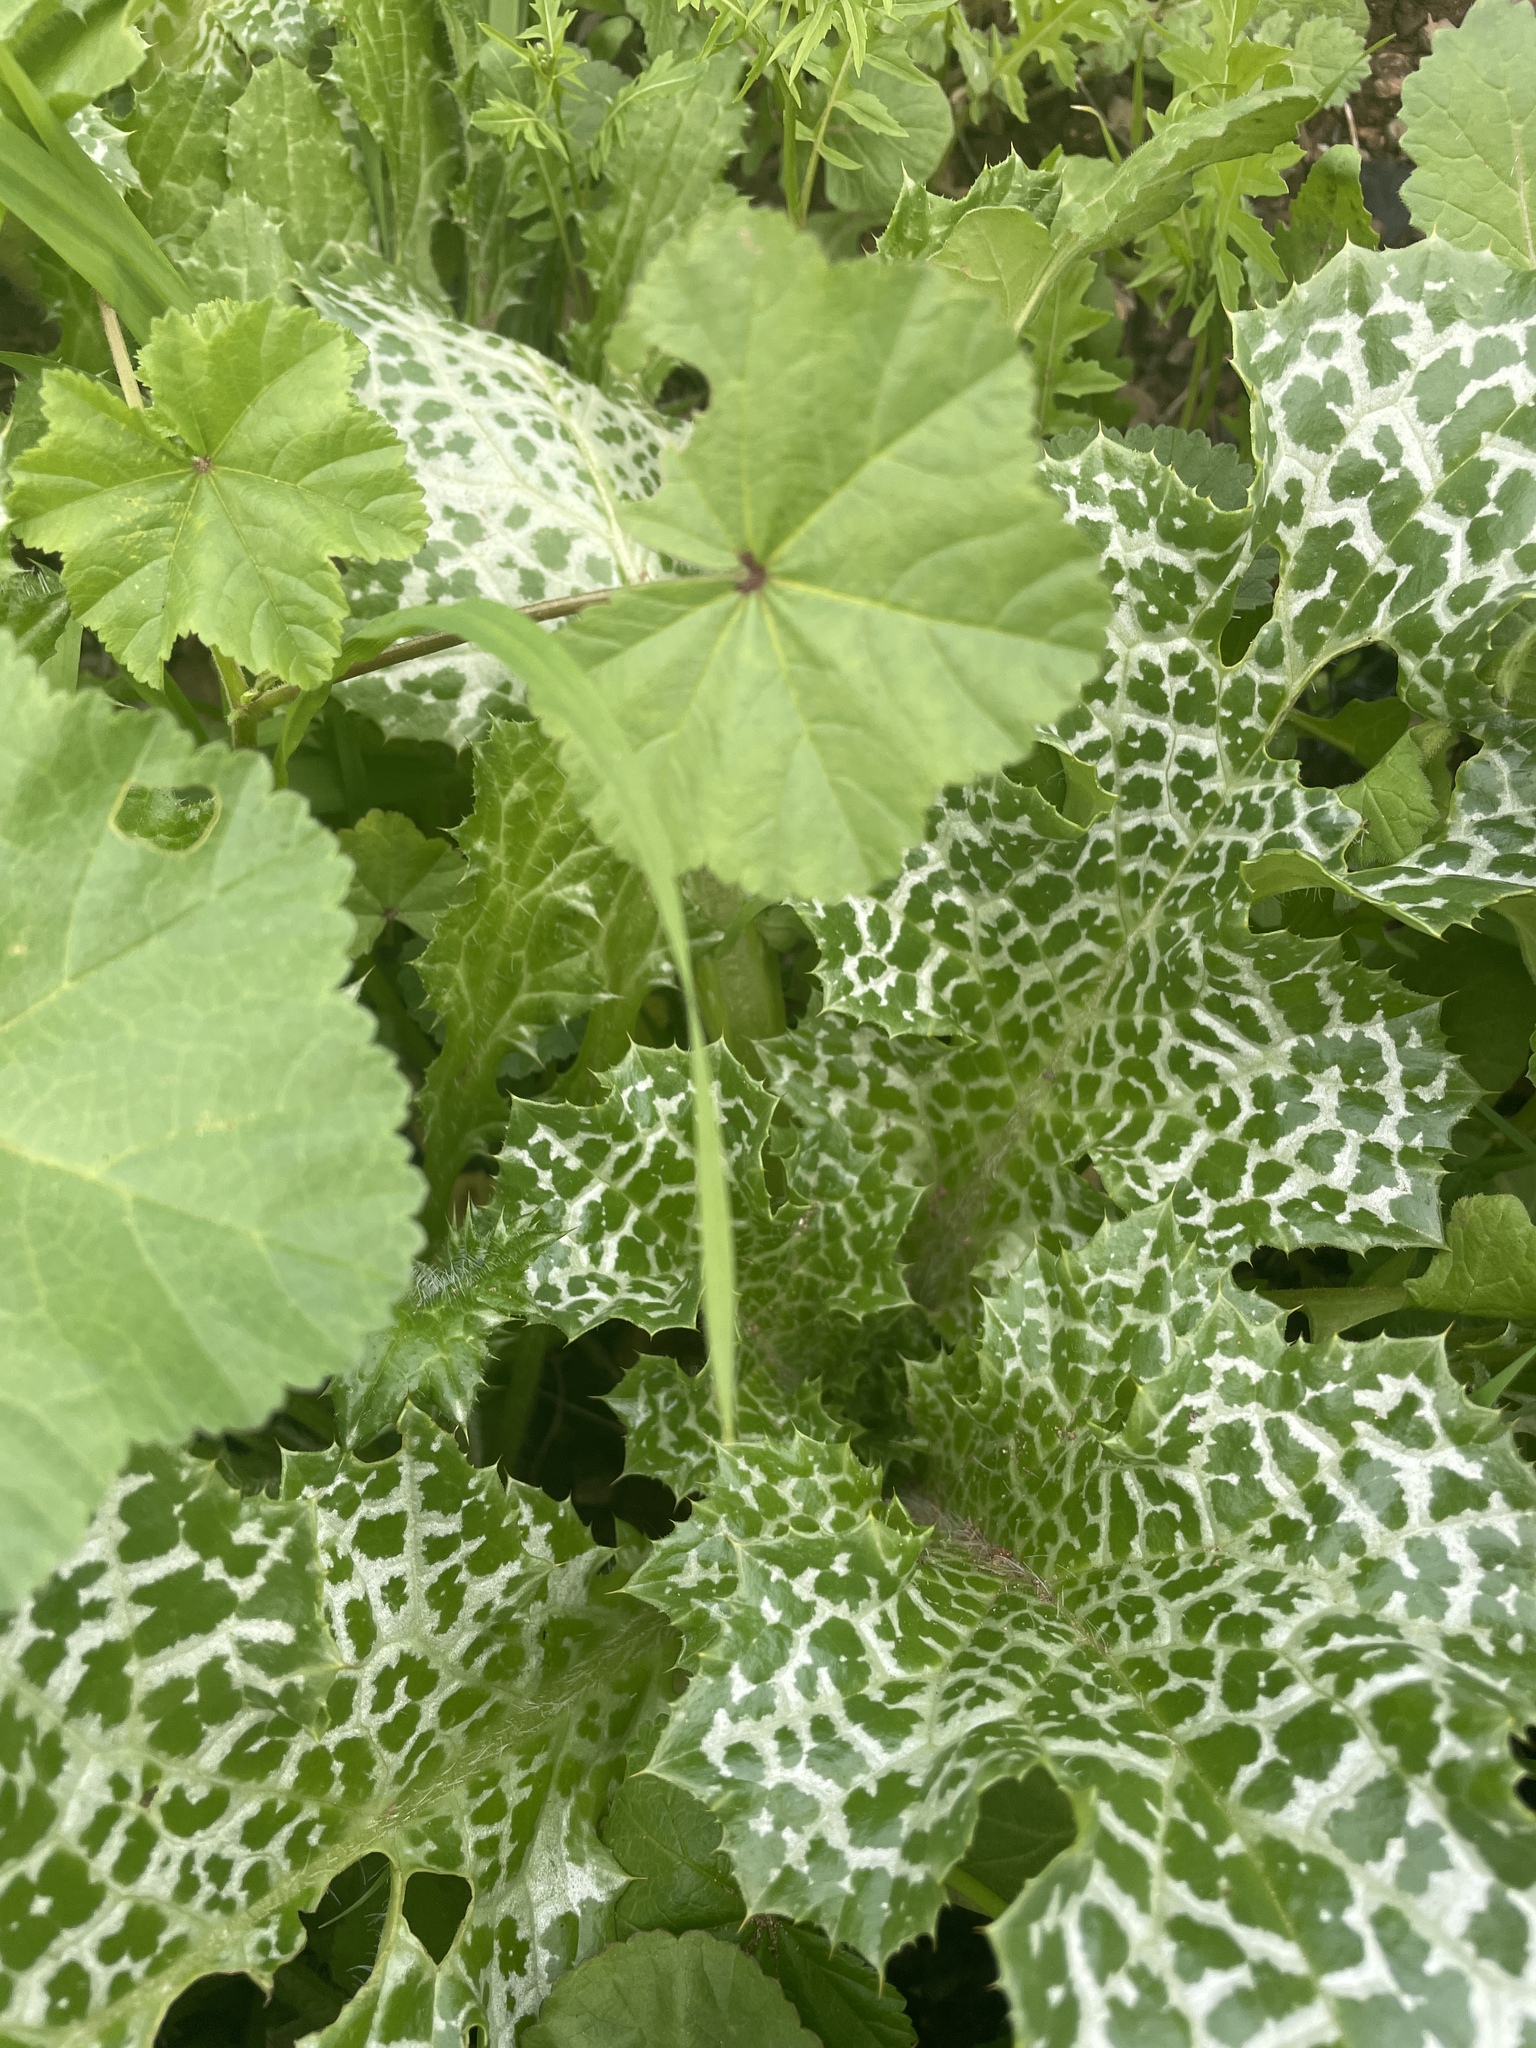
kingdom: Plantae
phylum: Tracheophyta
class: Magnoliopsida
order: Asterales
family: Asteraceae
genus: Silybum
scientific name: Silybum marianum
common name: Milk thistle
